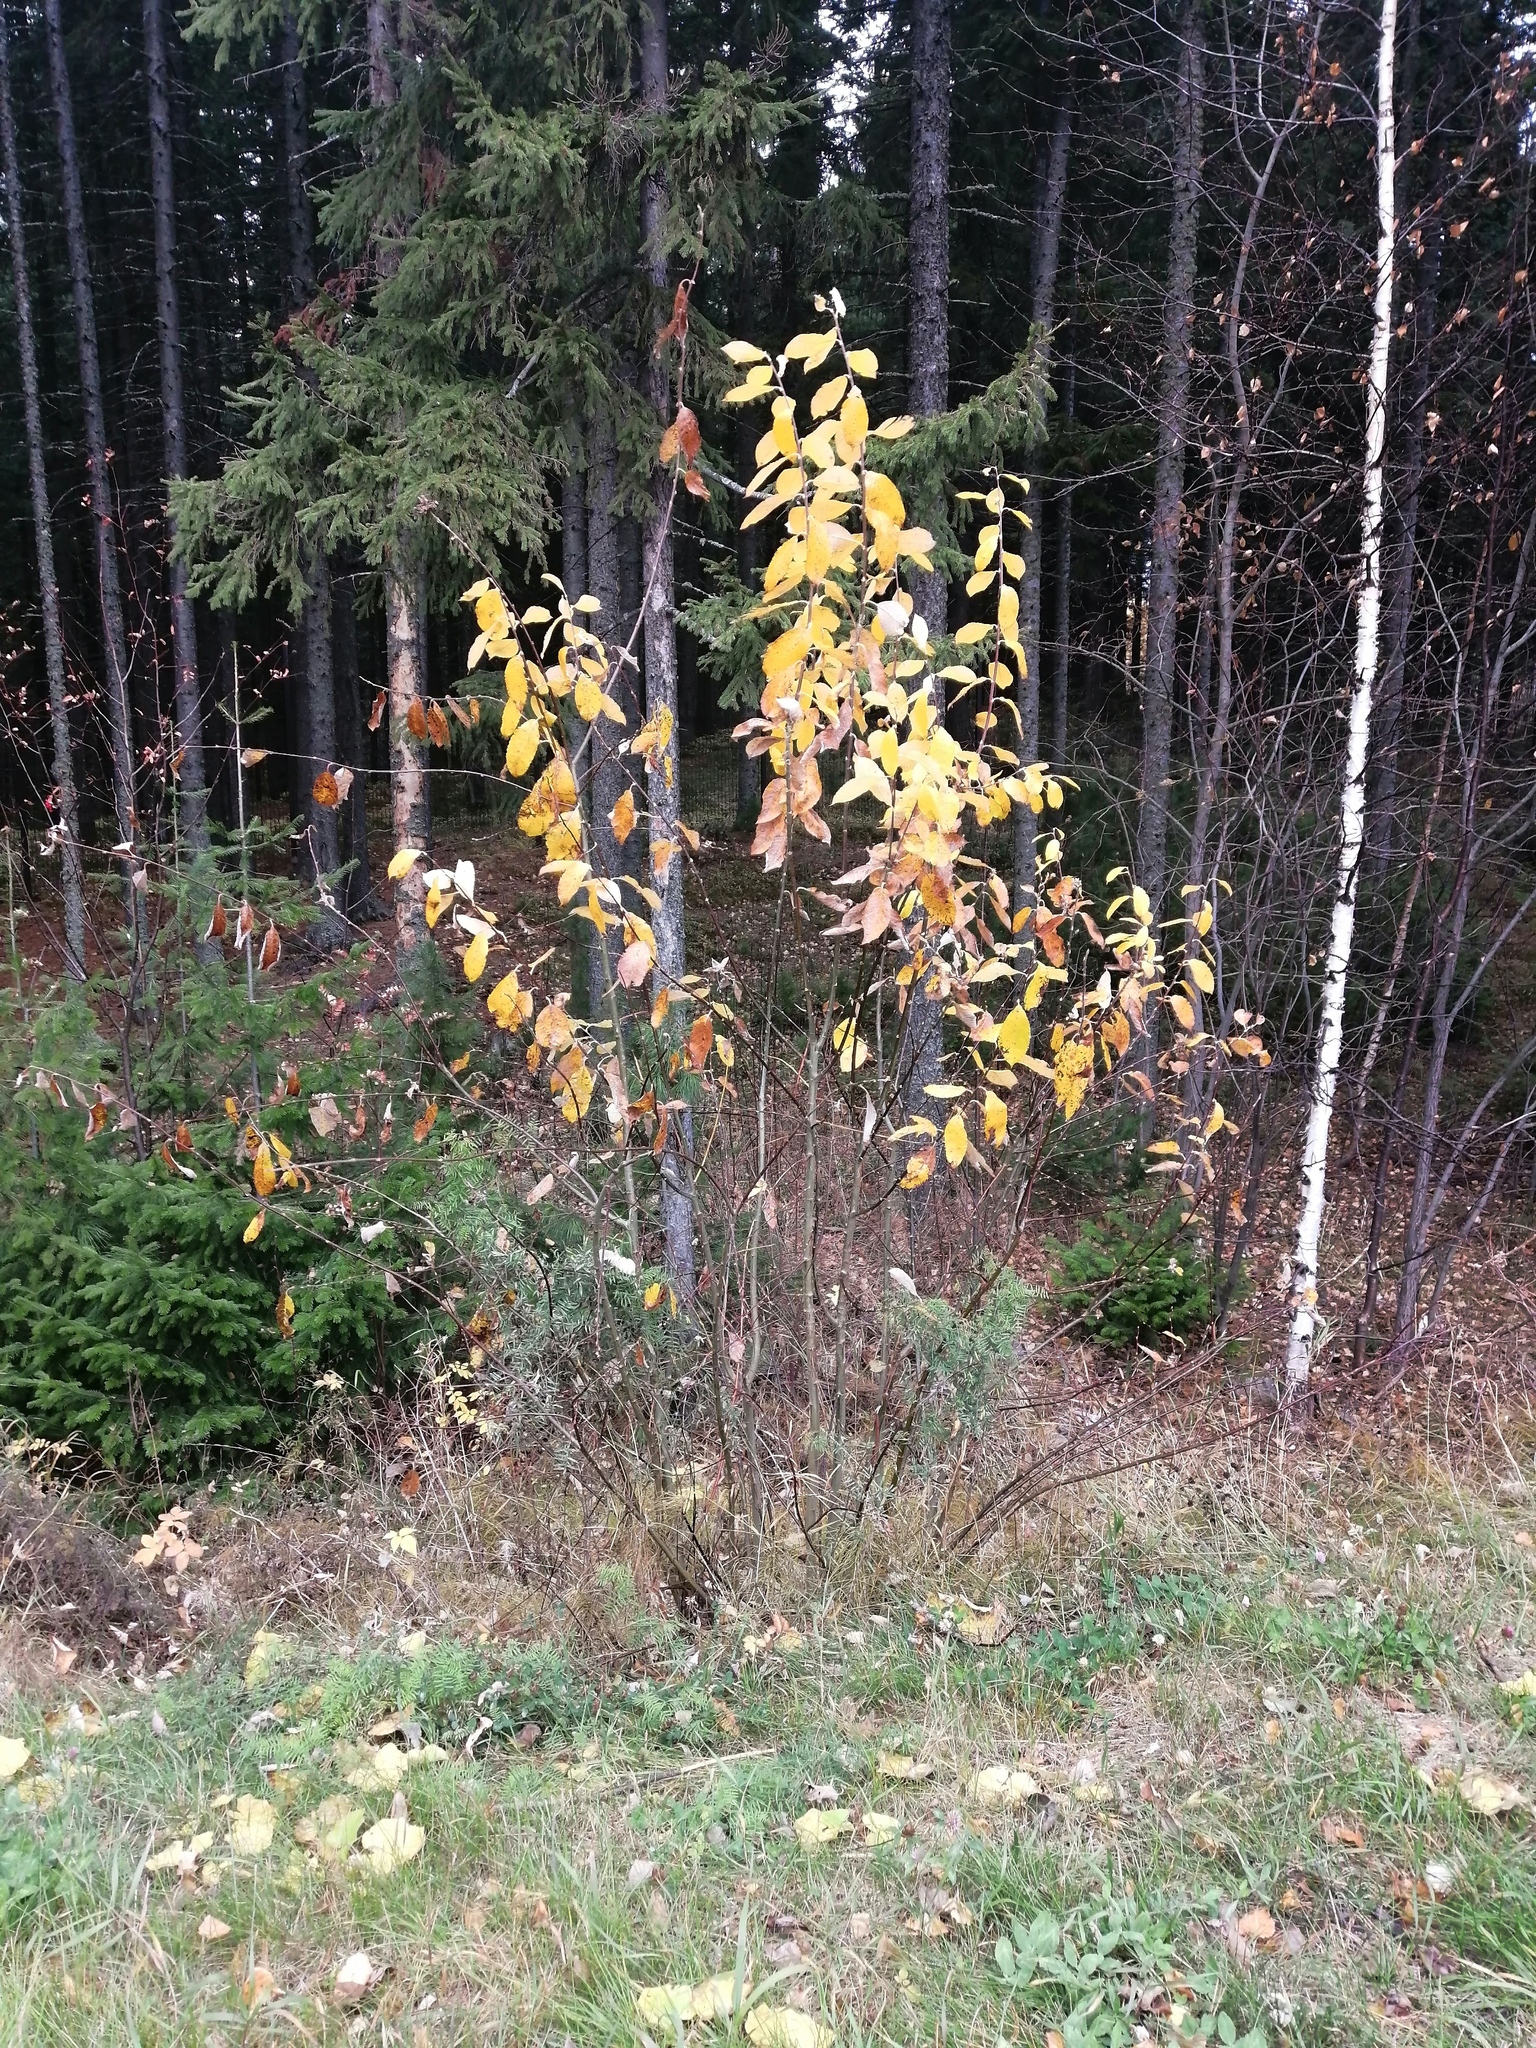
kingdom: Plantae
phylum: Tracheophyta
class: Magnoliopsida
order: Malpighiales
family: Salicaceae
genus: Salix
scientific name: Salix caprea
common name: Goat willow
